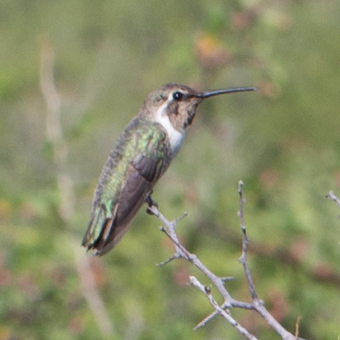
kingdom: Animalia
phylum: Chordata
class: Aves
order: Apodiformes
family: Trochilidae
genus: Calypte
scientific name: Calypte costae
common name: Costa's hummingbird
